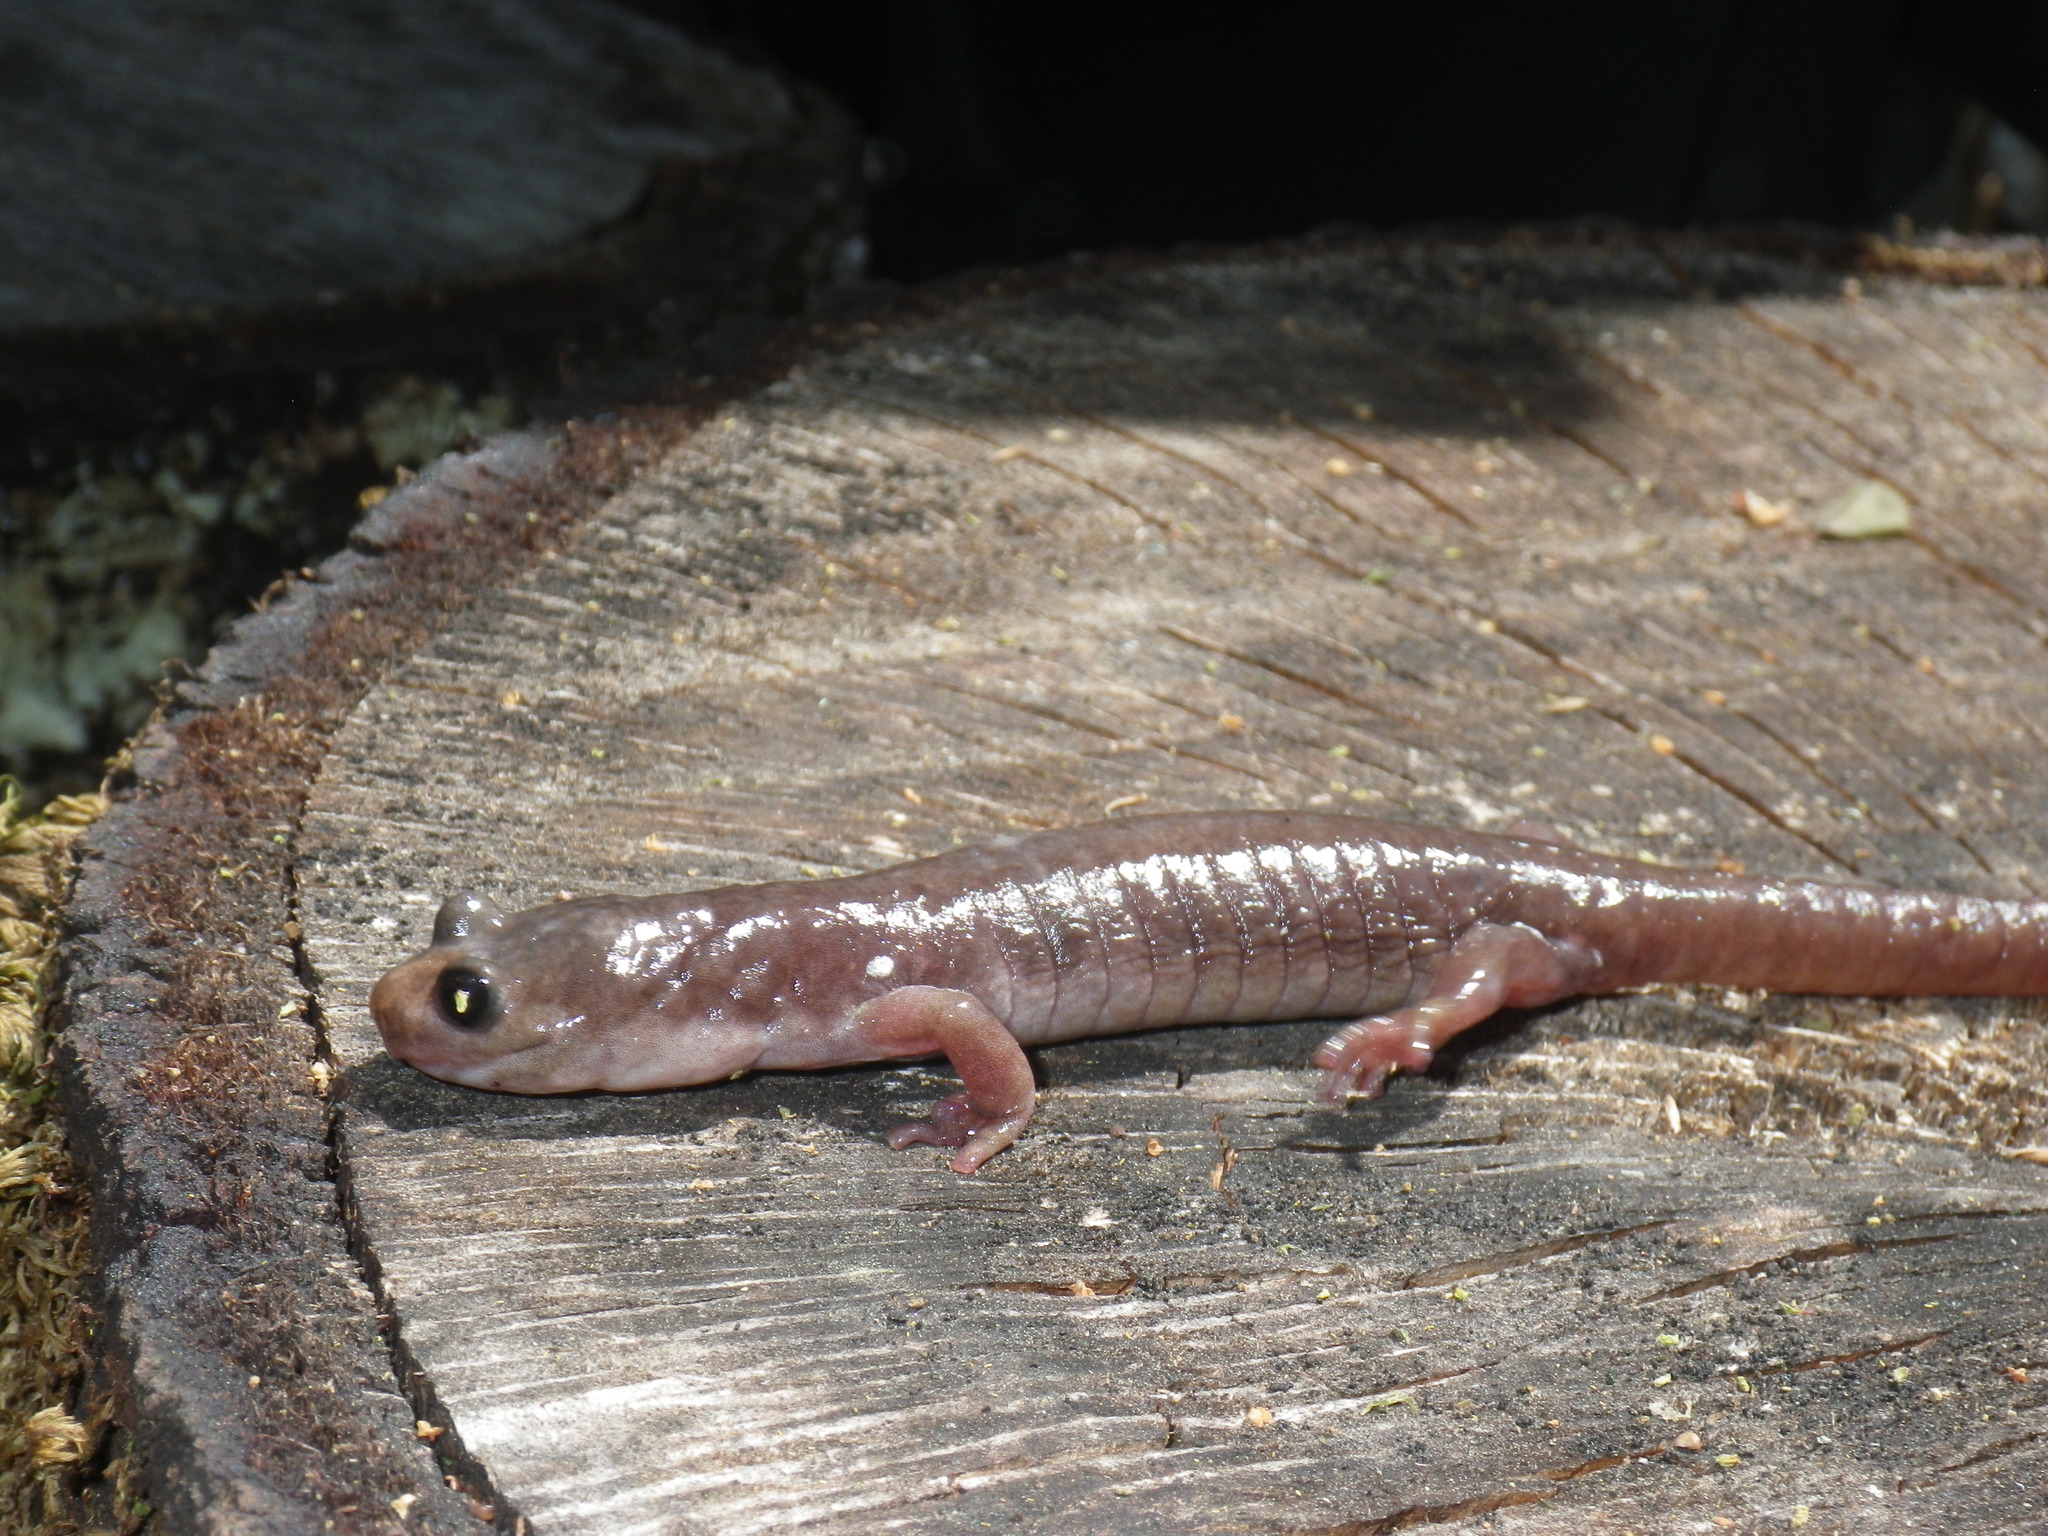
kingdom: Animalia
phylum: Chordata
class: Amphibia
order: Caudata
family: Plethodontidae
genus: Aneides
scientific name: Aneides lugubris
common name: Arboreal salamander
